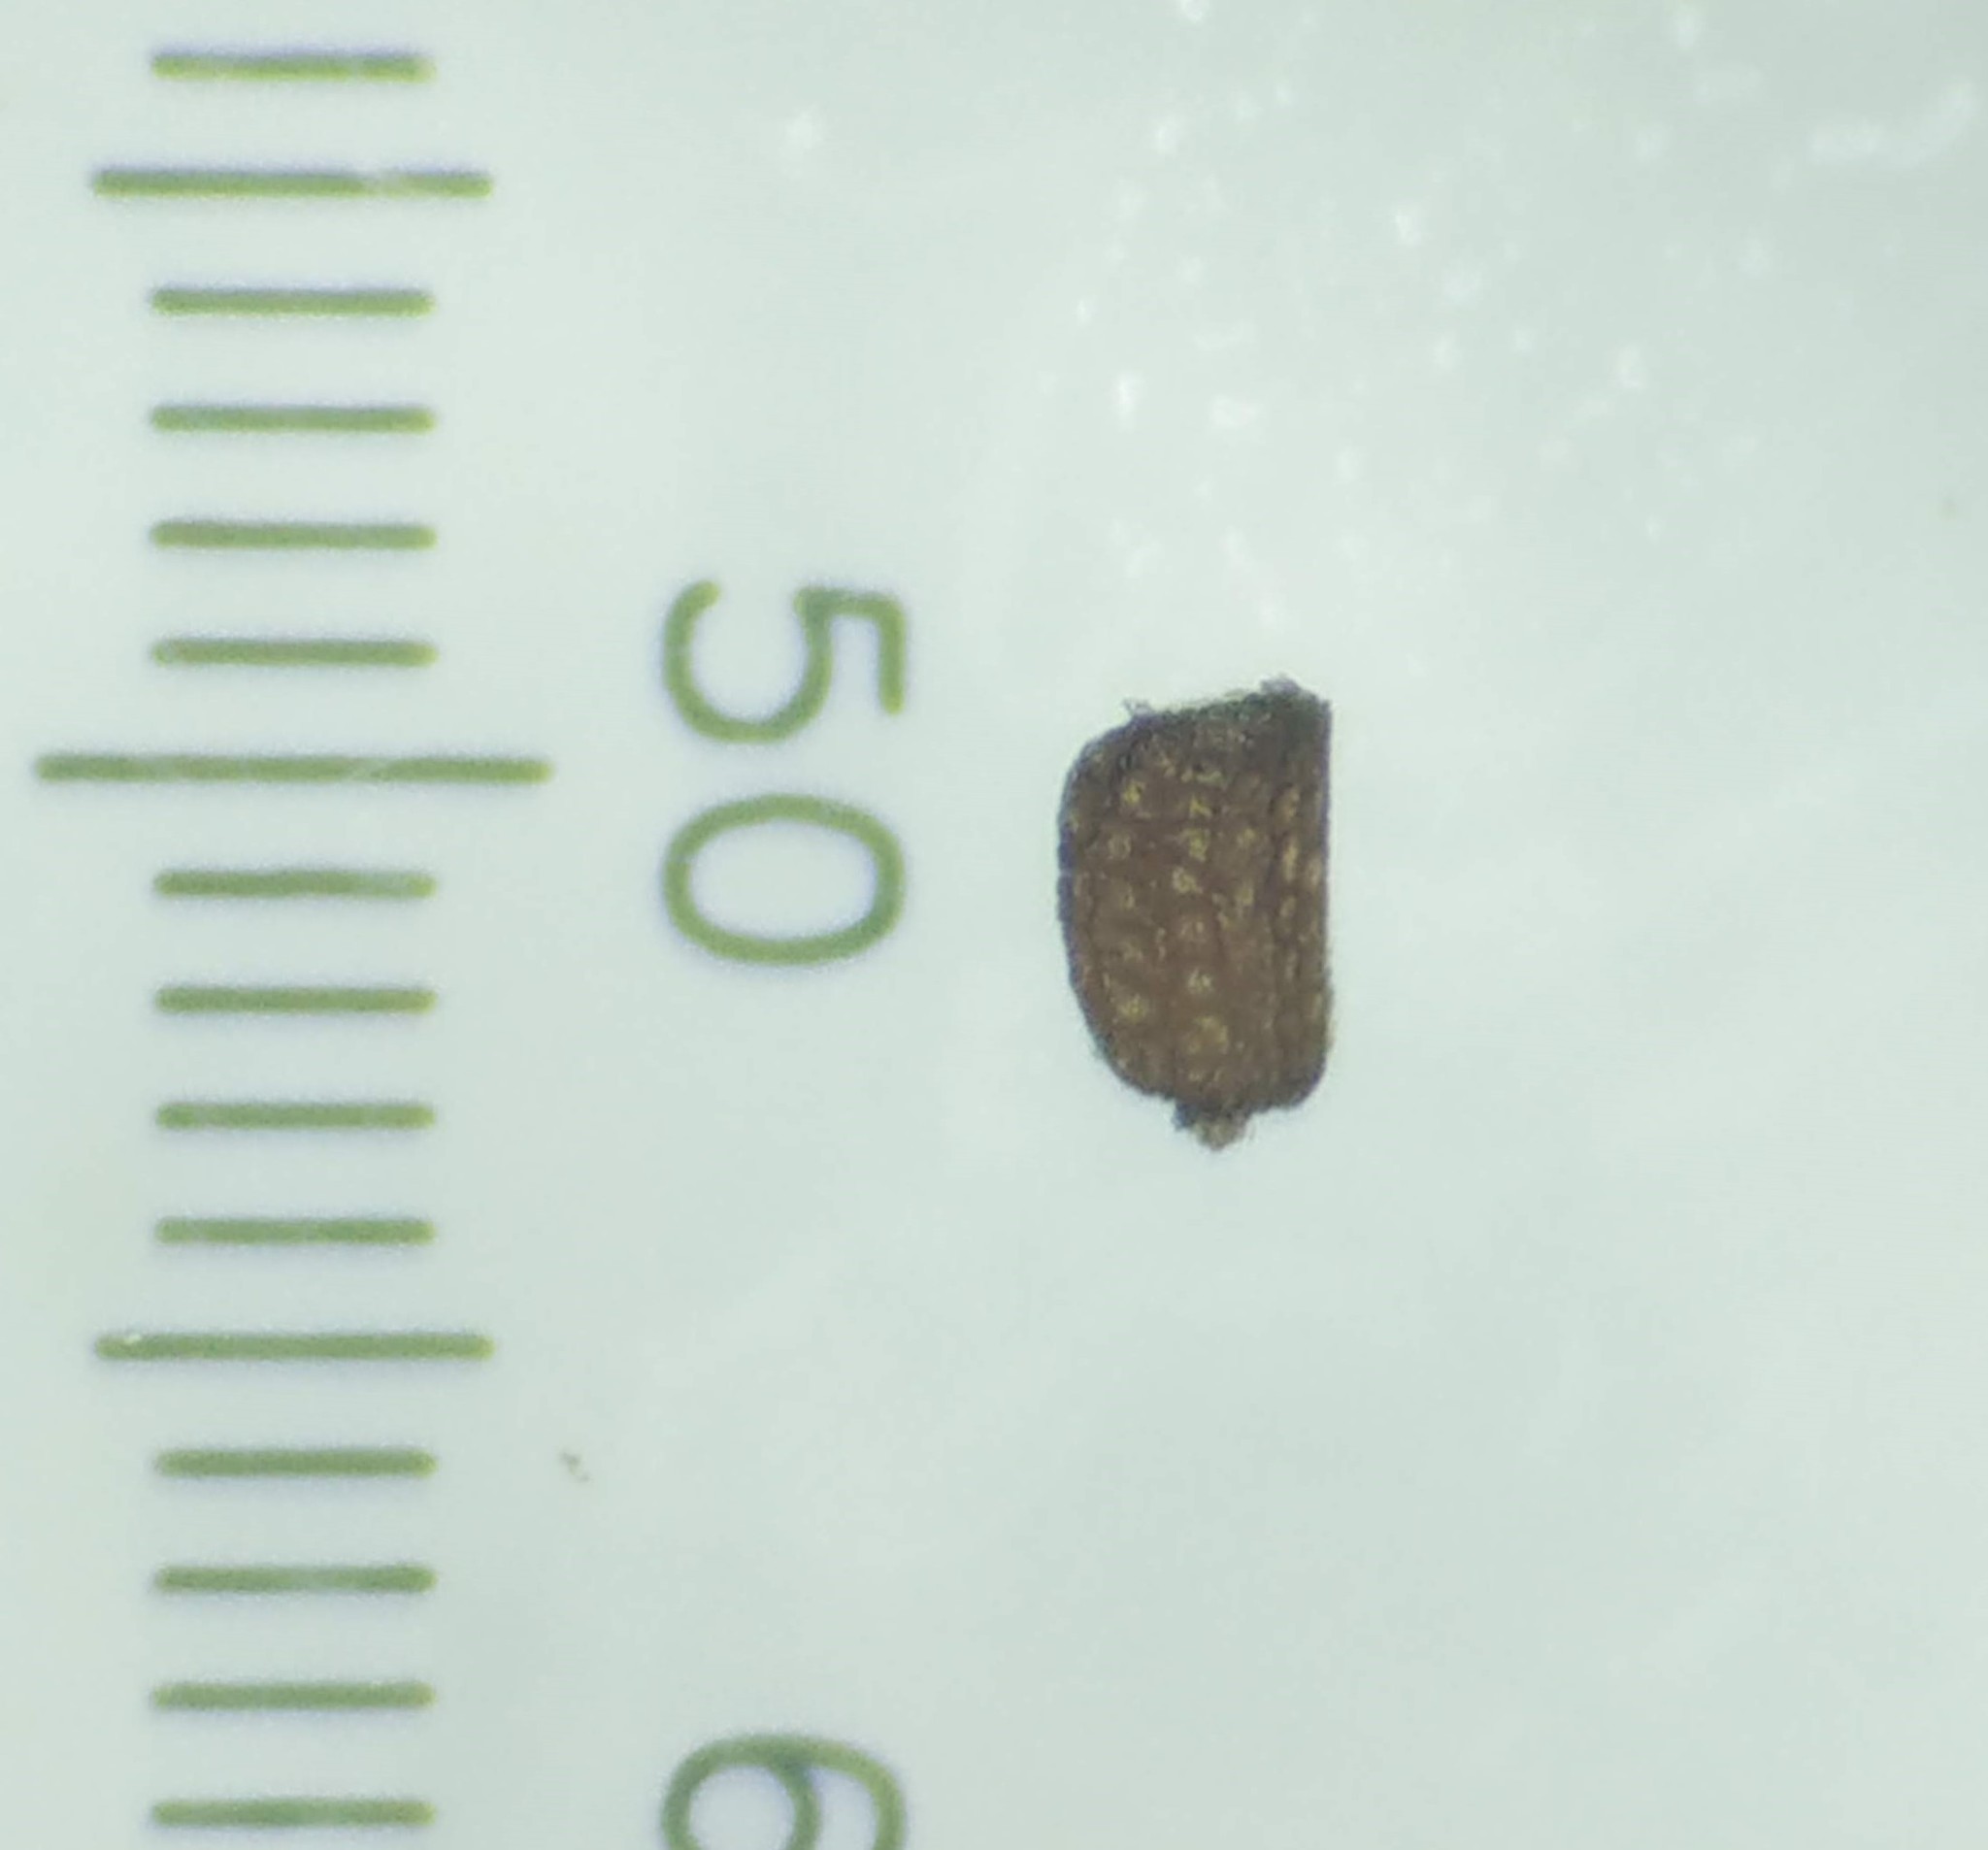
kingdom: Plantae
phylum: Tracheophyta
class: Magnoliopsida
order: Lamiales
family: Plantaginaceae
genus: Scoparia
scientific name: Scoparia dulcis
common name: Scoparia-weed
